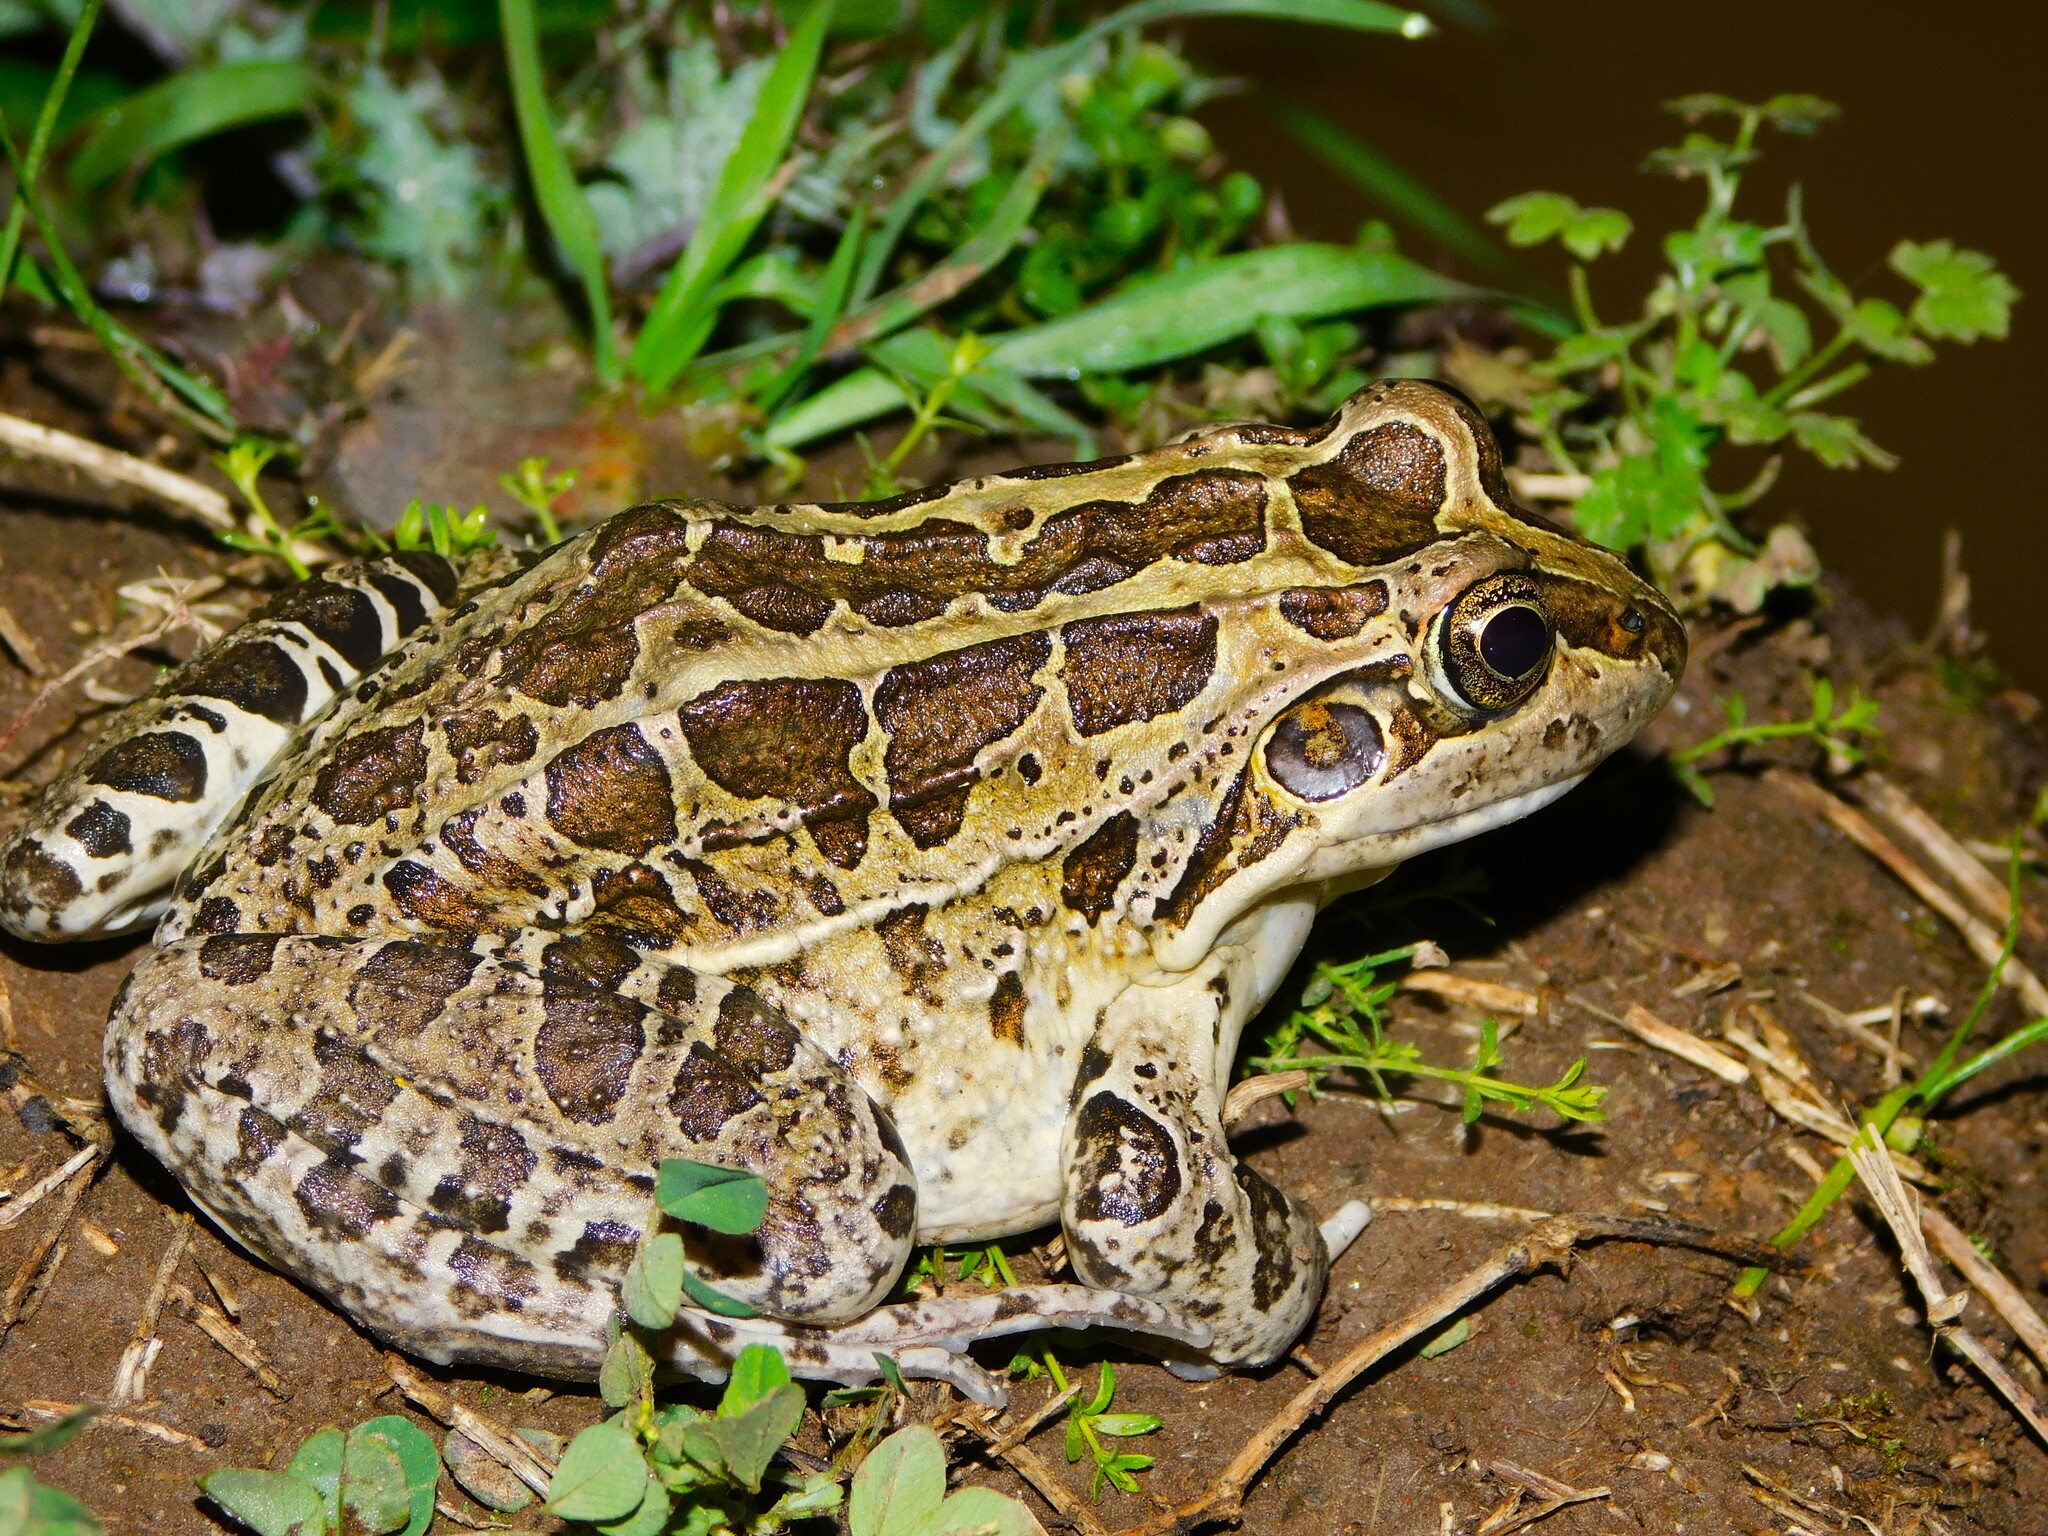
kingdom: Animalia
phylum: Chordata
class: Amphibia
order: Anura
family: Leptodactylidae
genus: Leptodactylus
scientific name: Leptodactylus luctator
